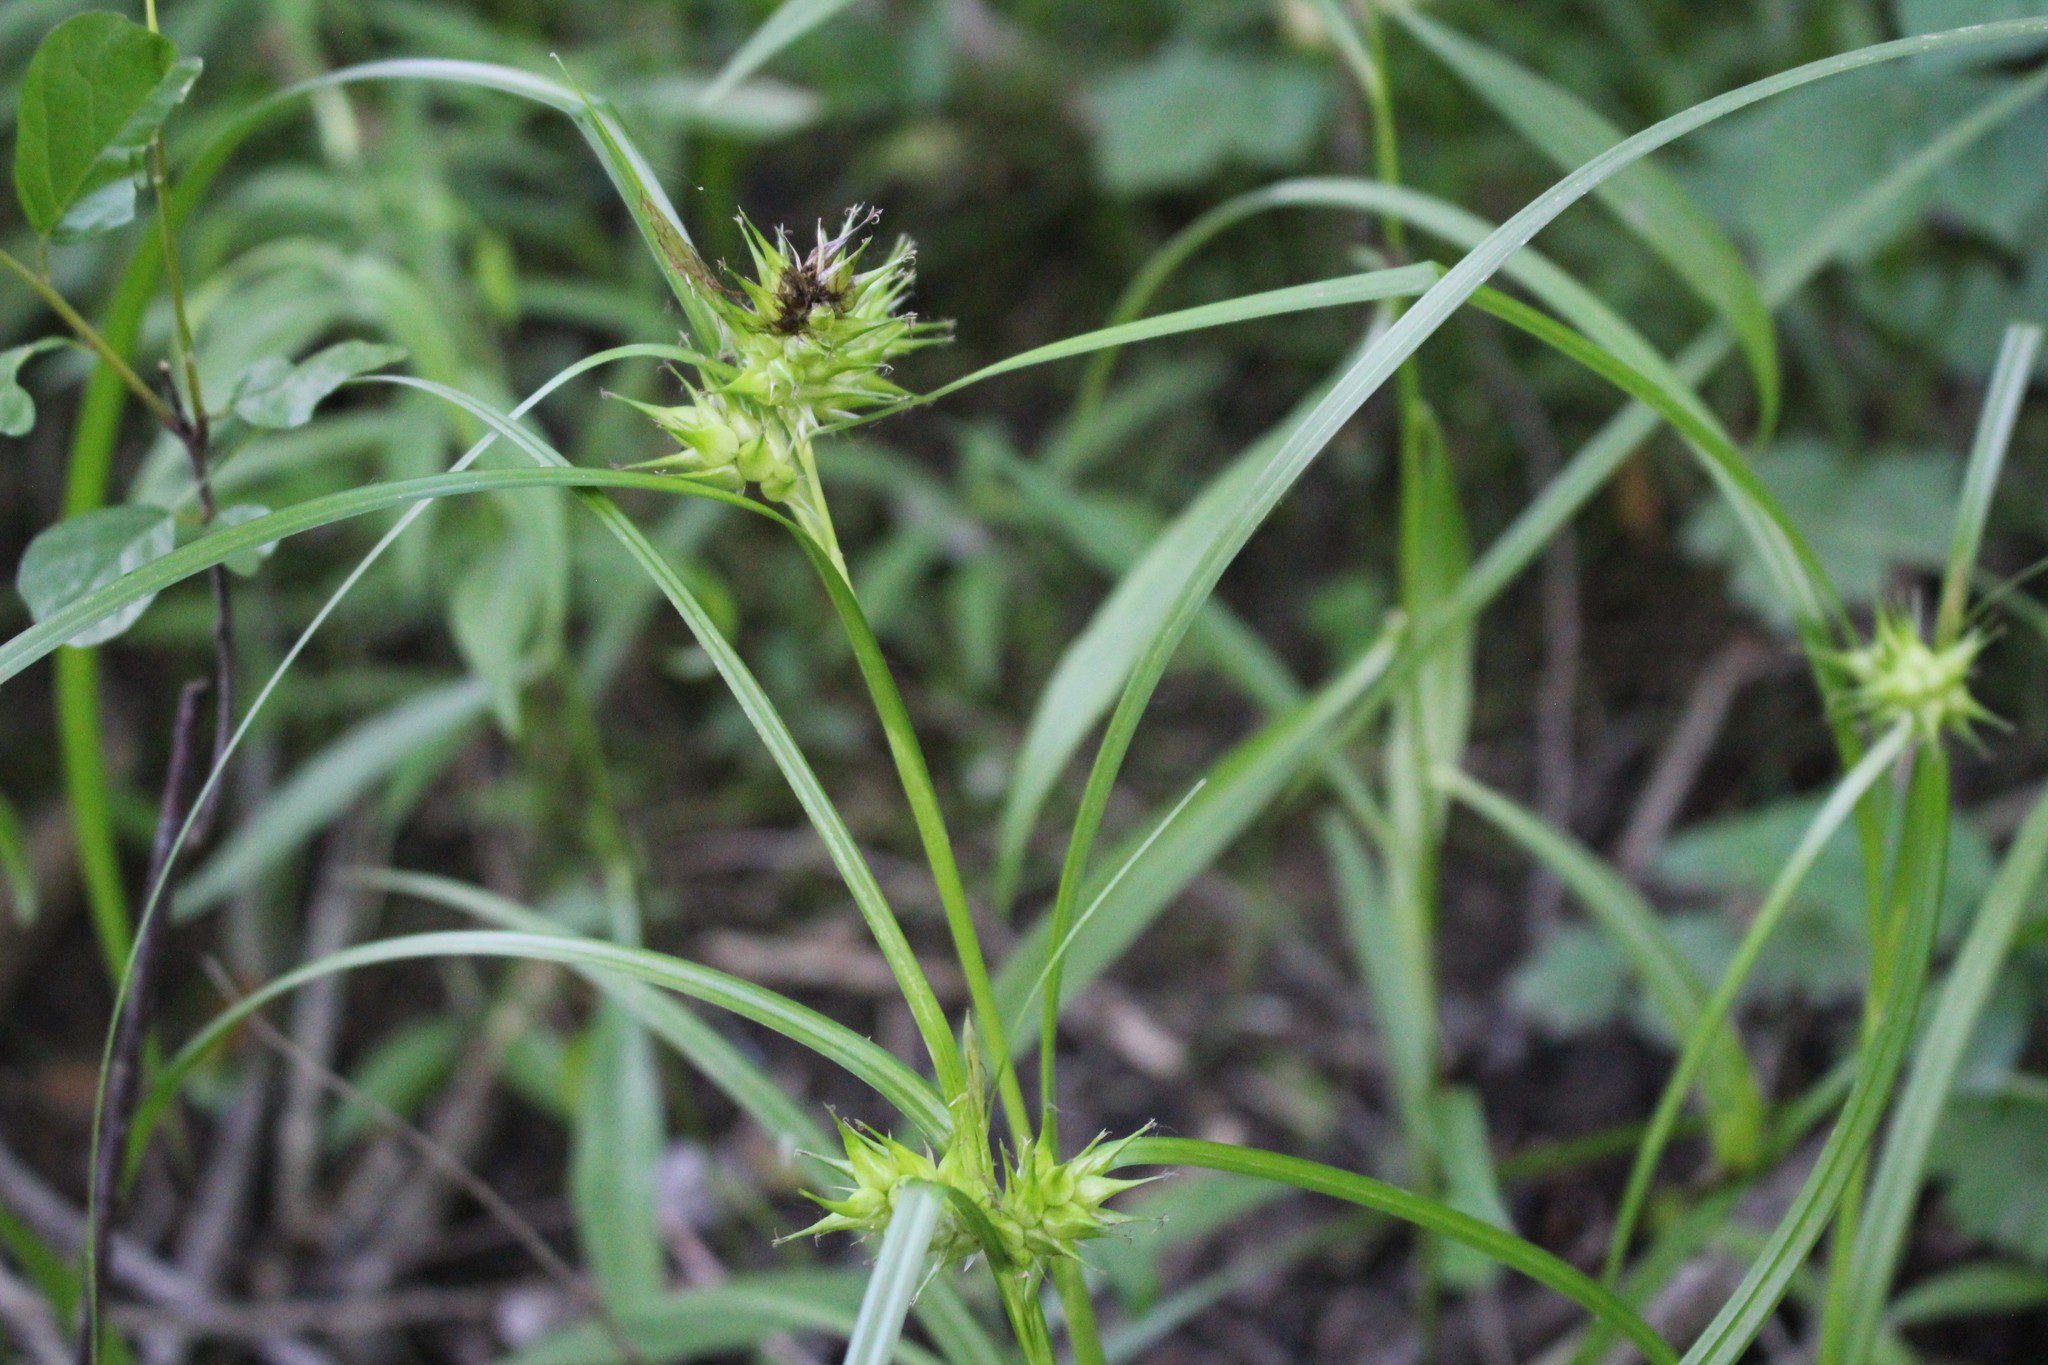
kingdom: Plantae
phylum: Tracheophyta
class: Liliopsida
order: Poales
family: Cyperaceae
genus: Carex
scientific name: Carex lupulina
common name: Hop sedge
